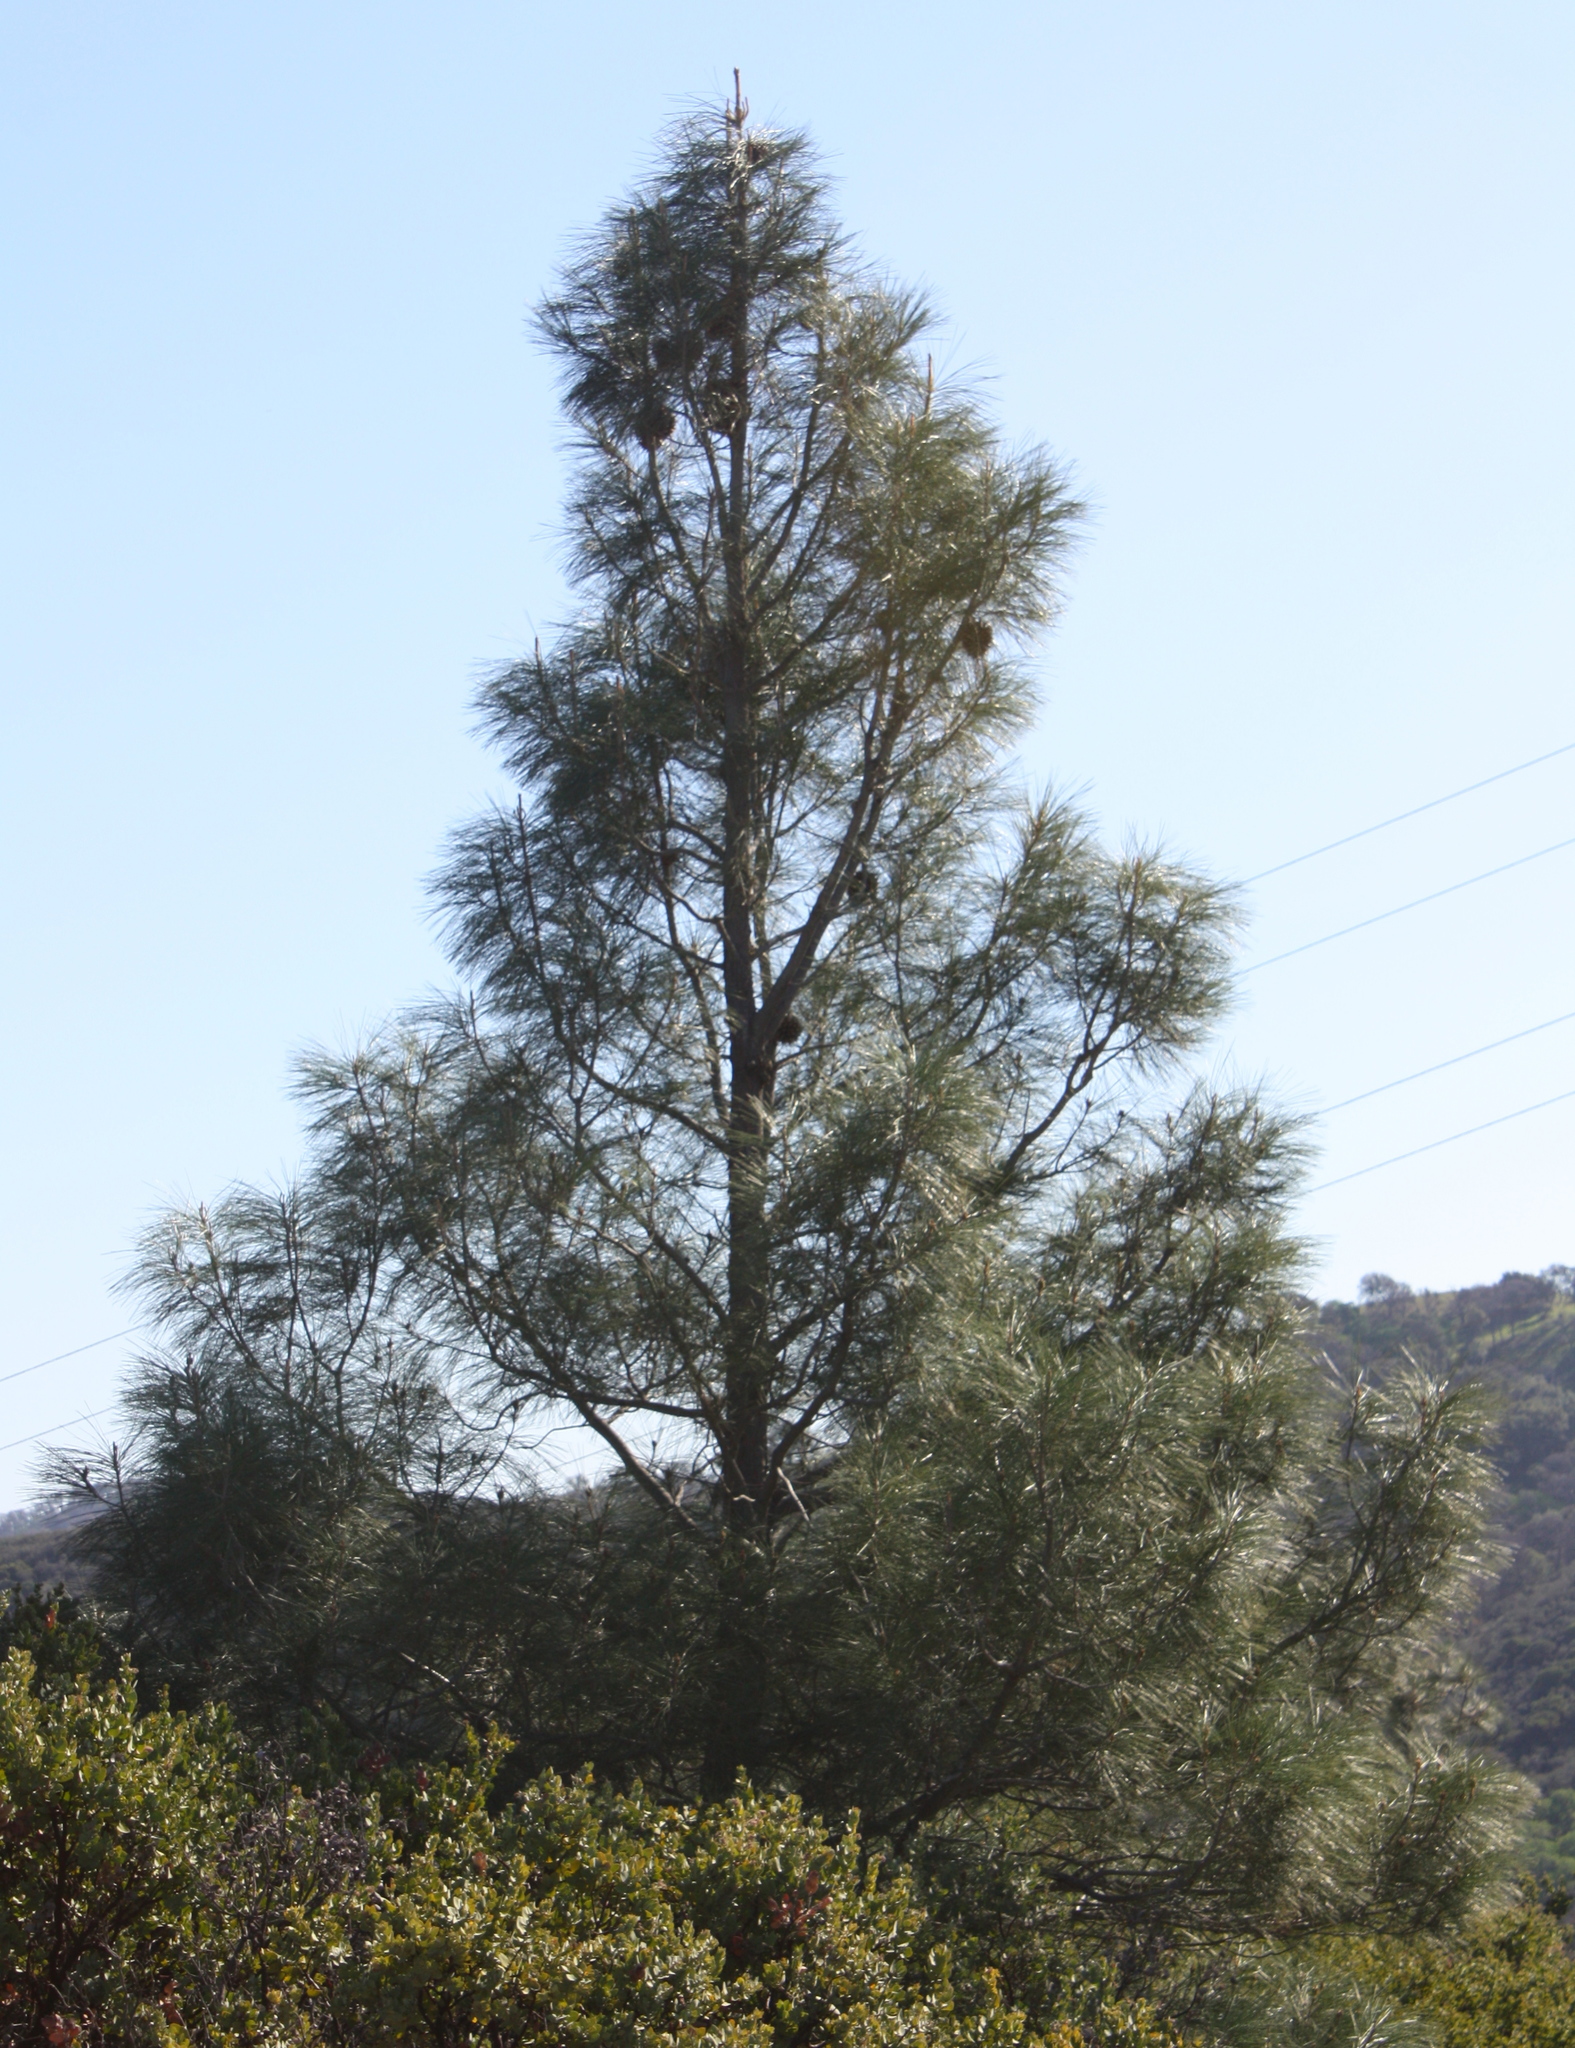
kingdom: Plantae
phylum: Tracheophyta
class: Pinopsida
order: Pinales
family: Pinaceae
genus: Pinus
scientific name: Pinus sabiniana
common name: Bull pine
